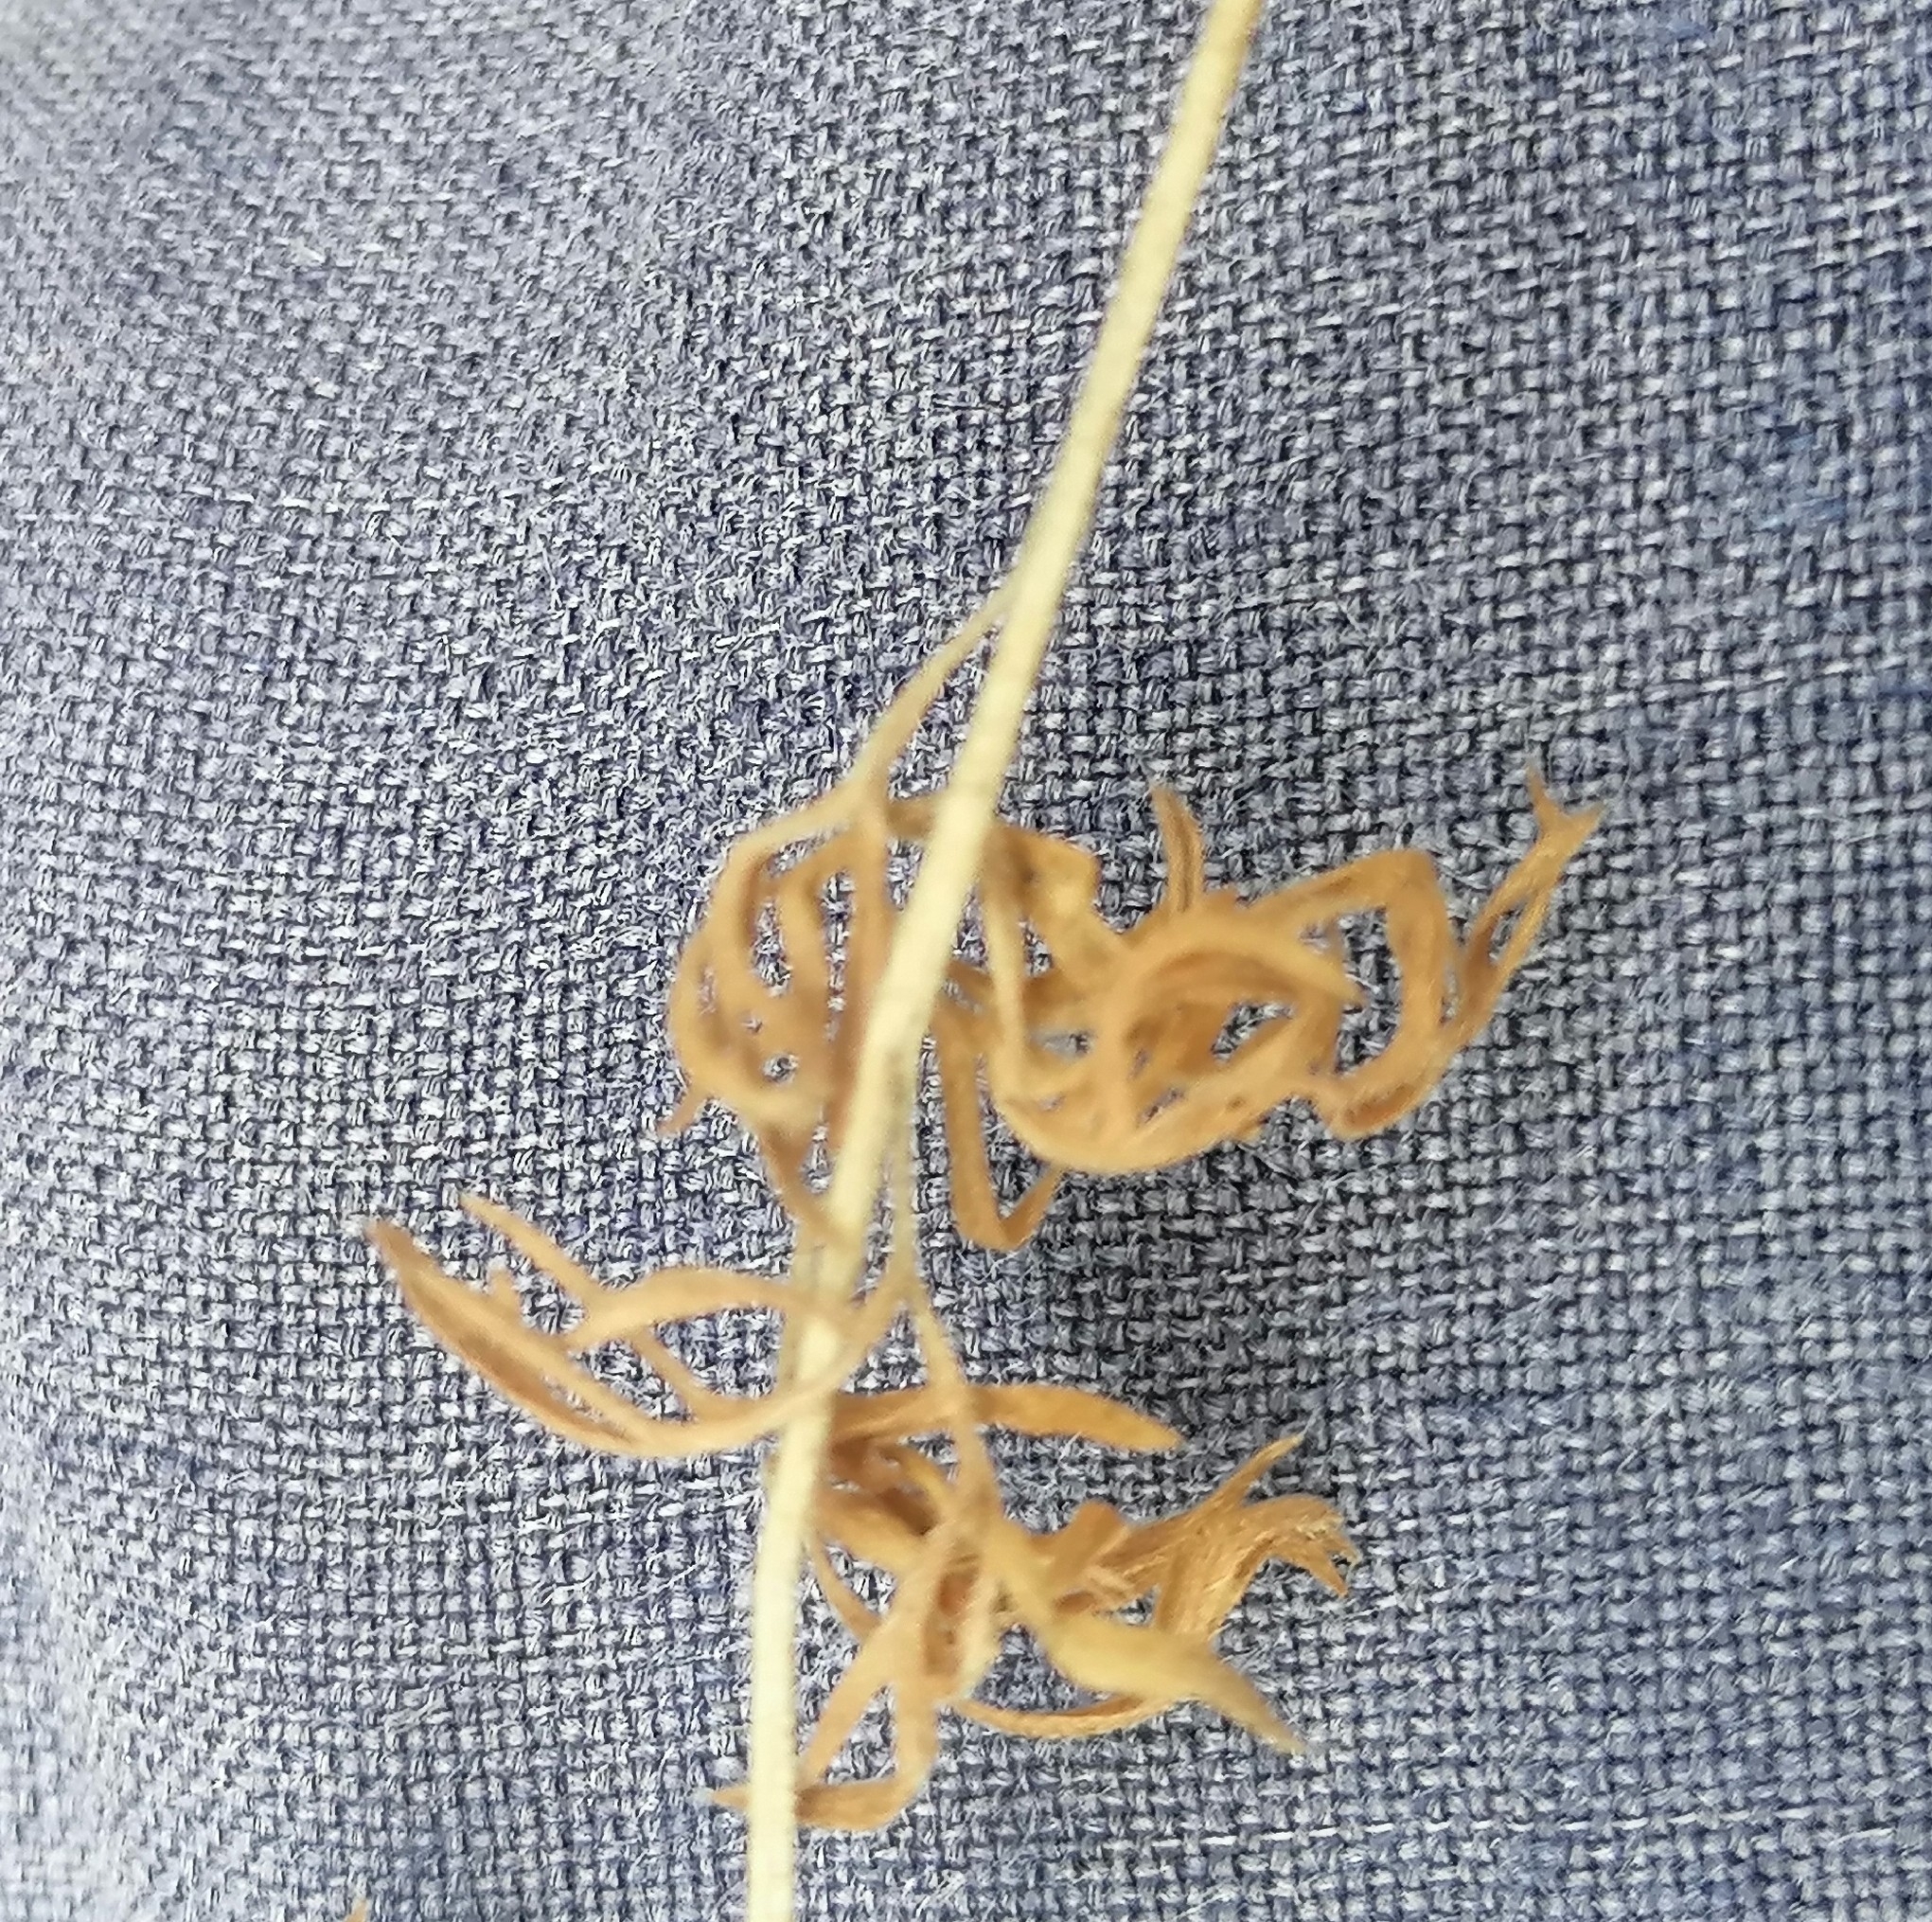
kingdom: Plantae
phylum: Tracheophyta
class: Magnoliopsida
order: Geraniales
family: Geraniaceae
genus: Pelargonium
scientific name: Pelargonium rapaceum
